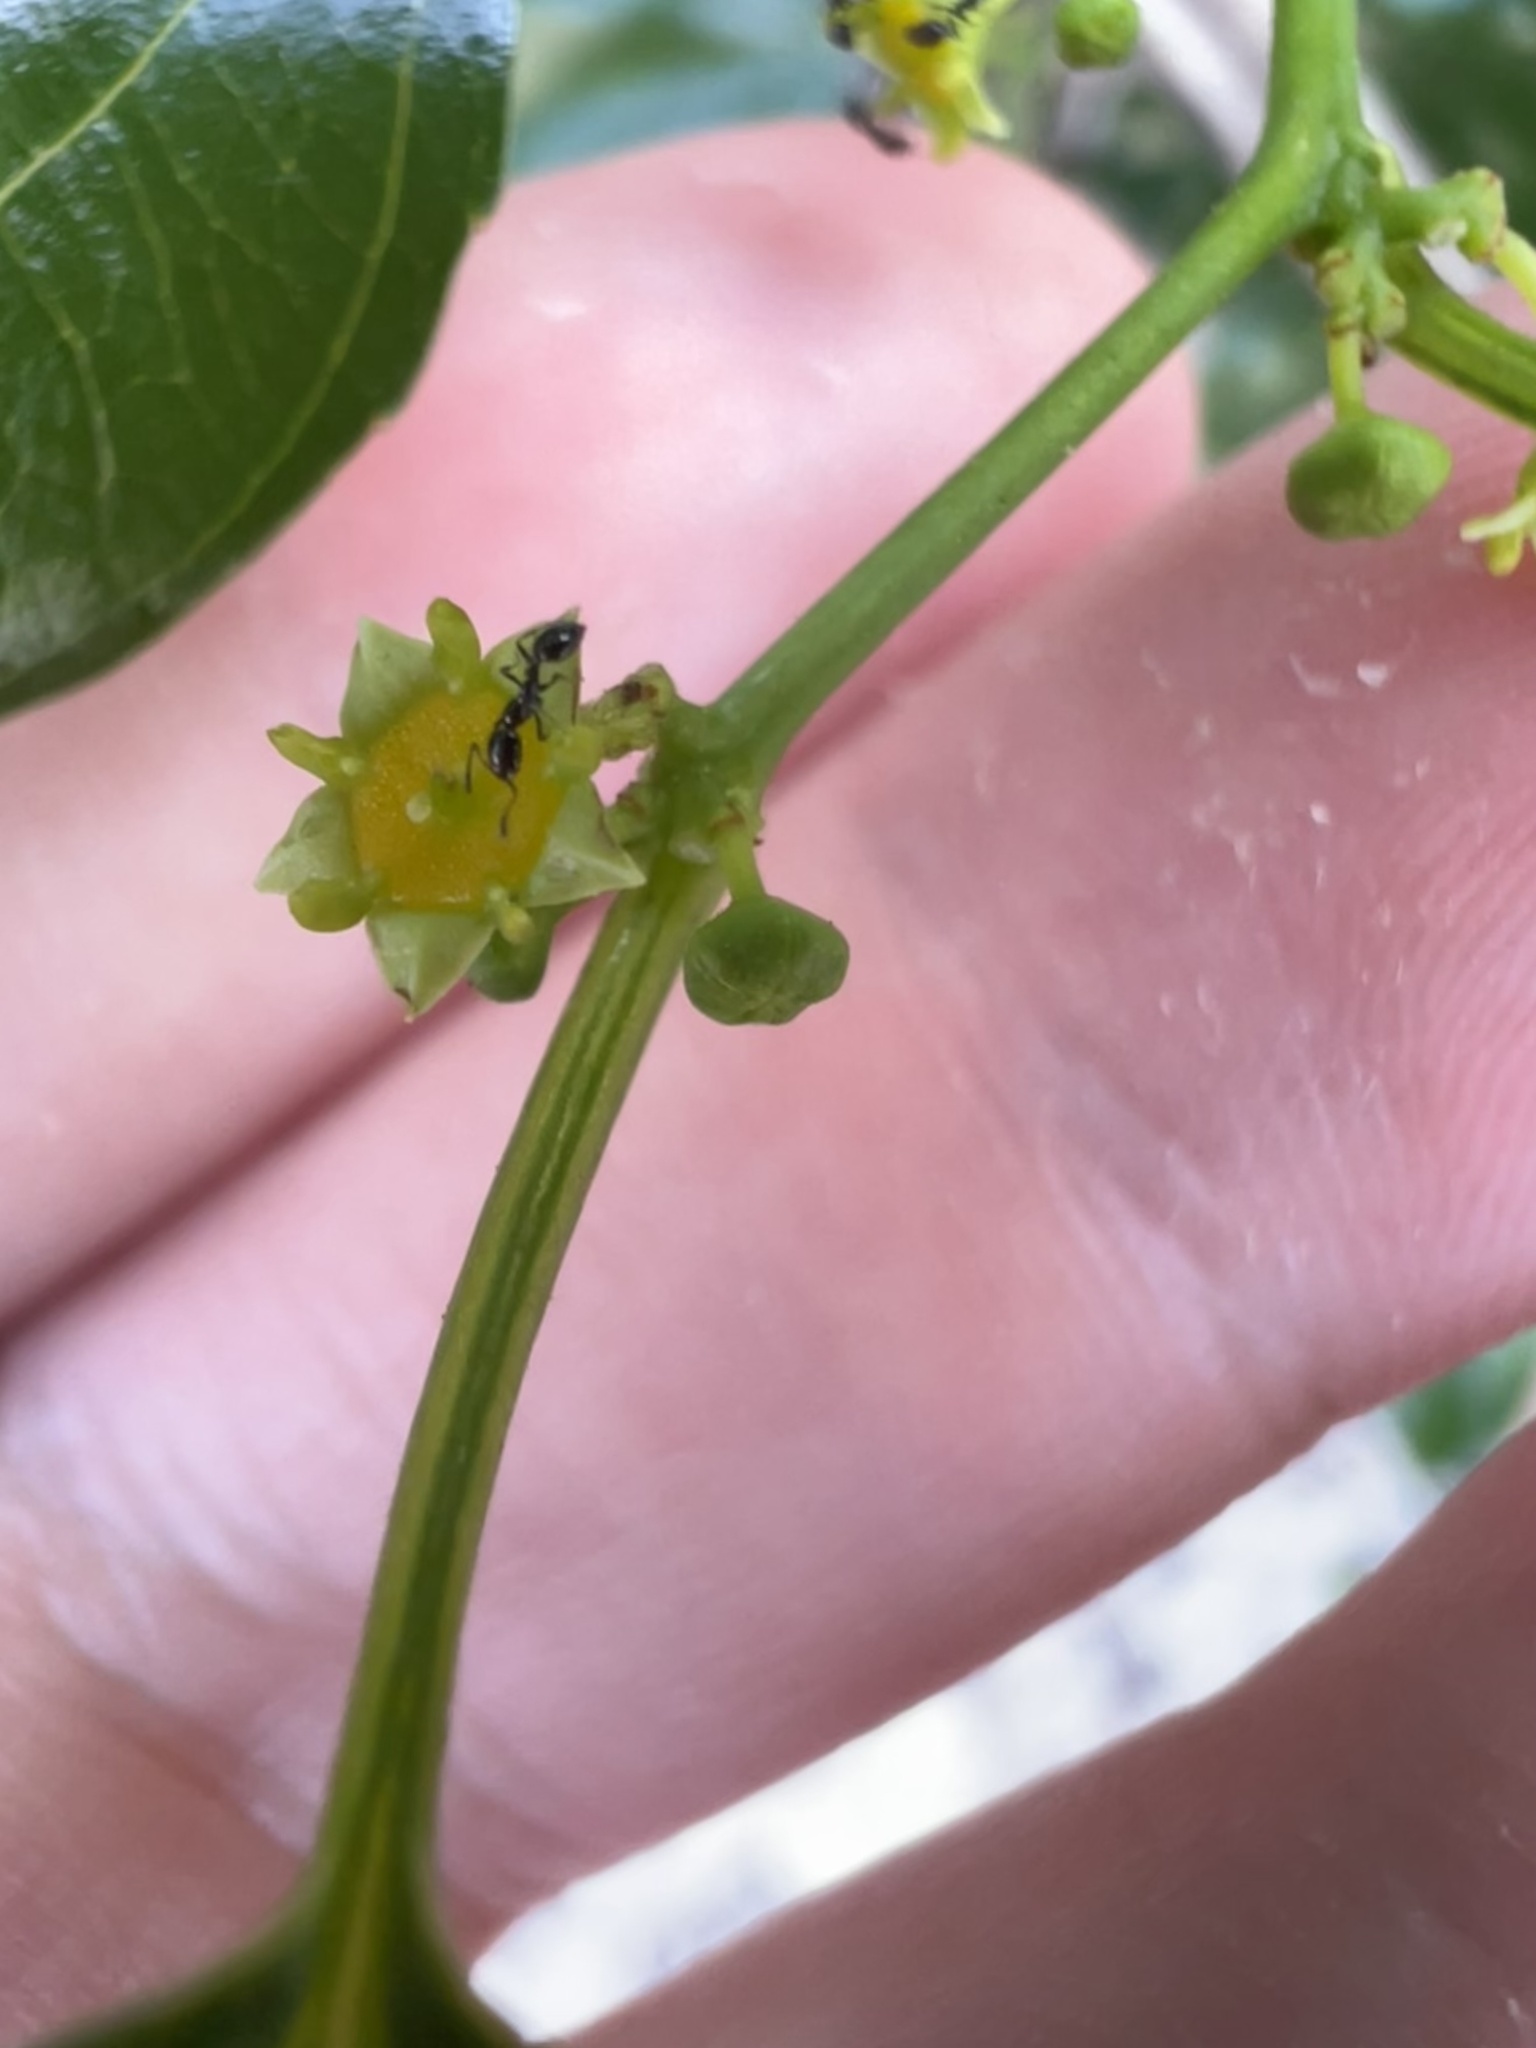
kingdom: Plantae
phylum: Tracheophyta
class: Magnoliopsida
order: Rosales
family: Rhamnaceae
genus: Colubrina
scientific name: Colubrina asiatica
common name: Asian nakedwood
